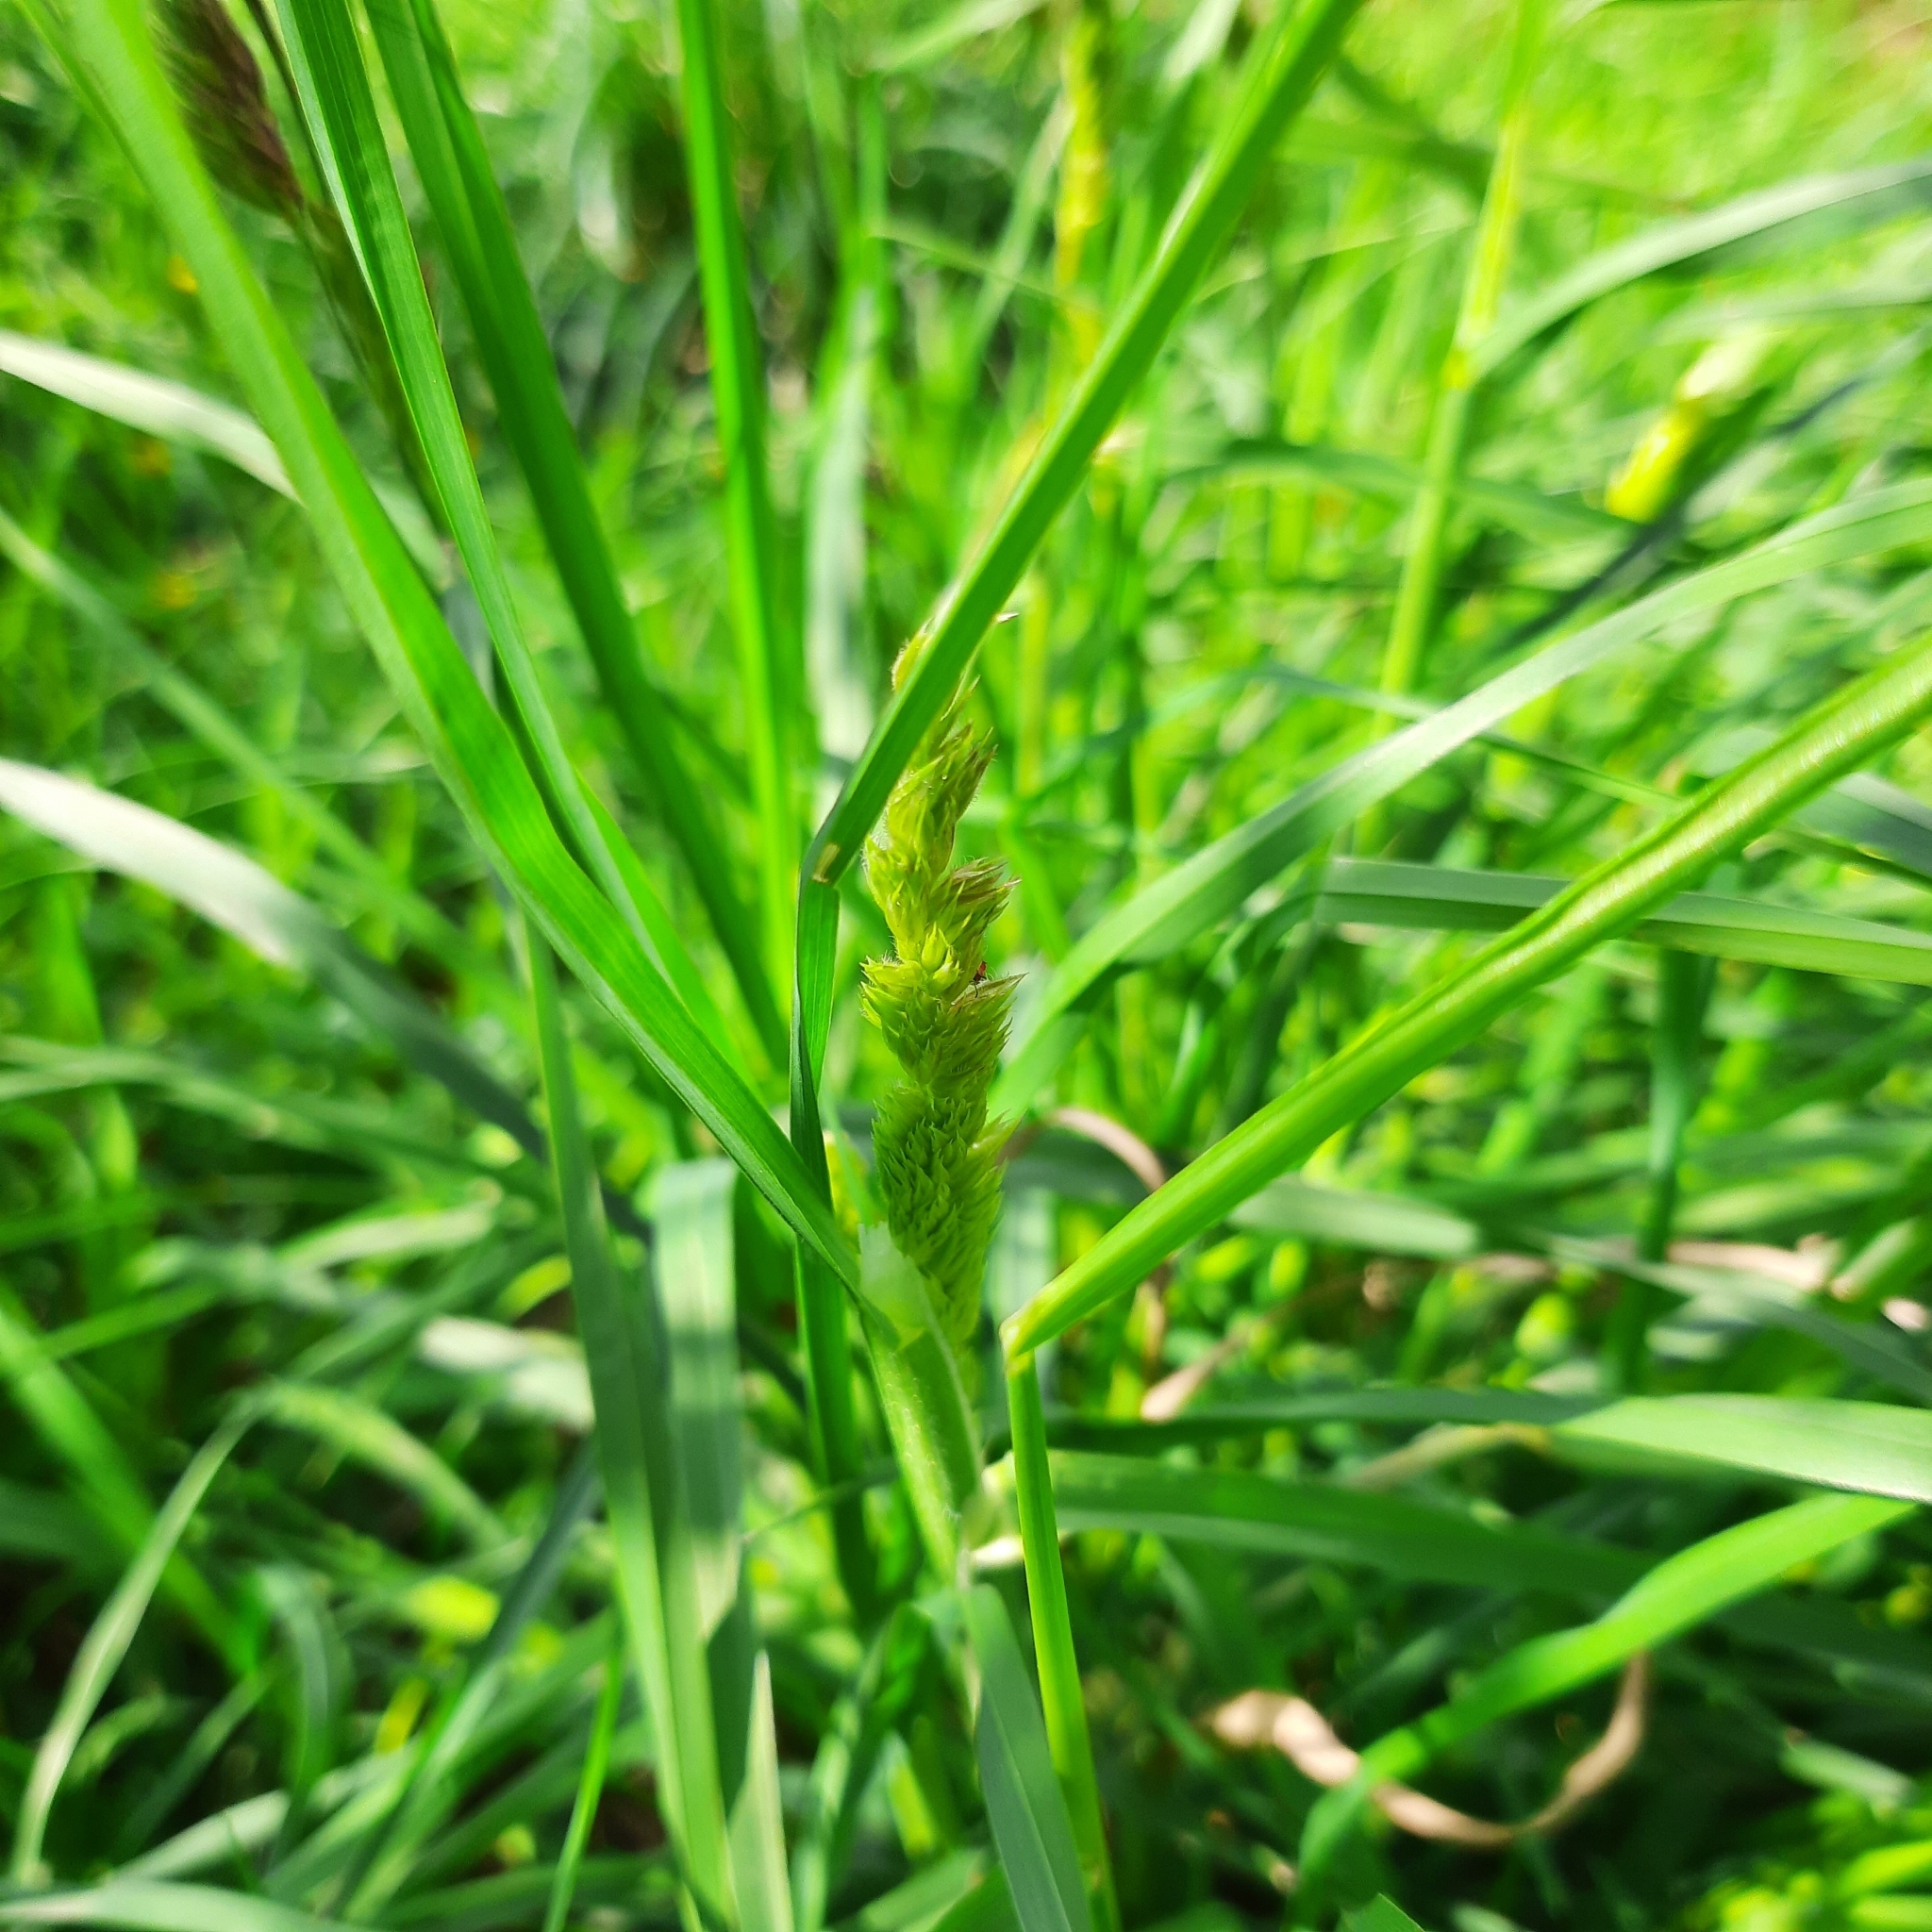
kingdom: Plantae
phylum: Tracheophyta
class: Liliopsida
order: Poales
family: Poaceae
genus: Dactylis
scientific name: Dactylis glomerata
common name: Orchardgrass
